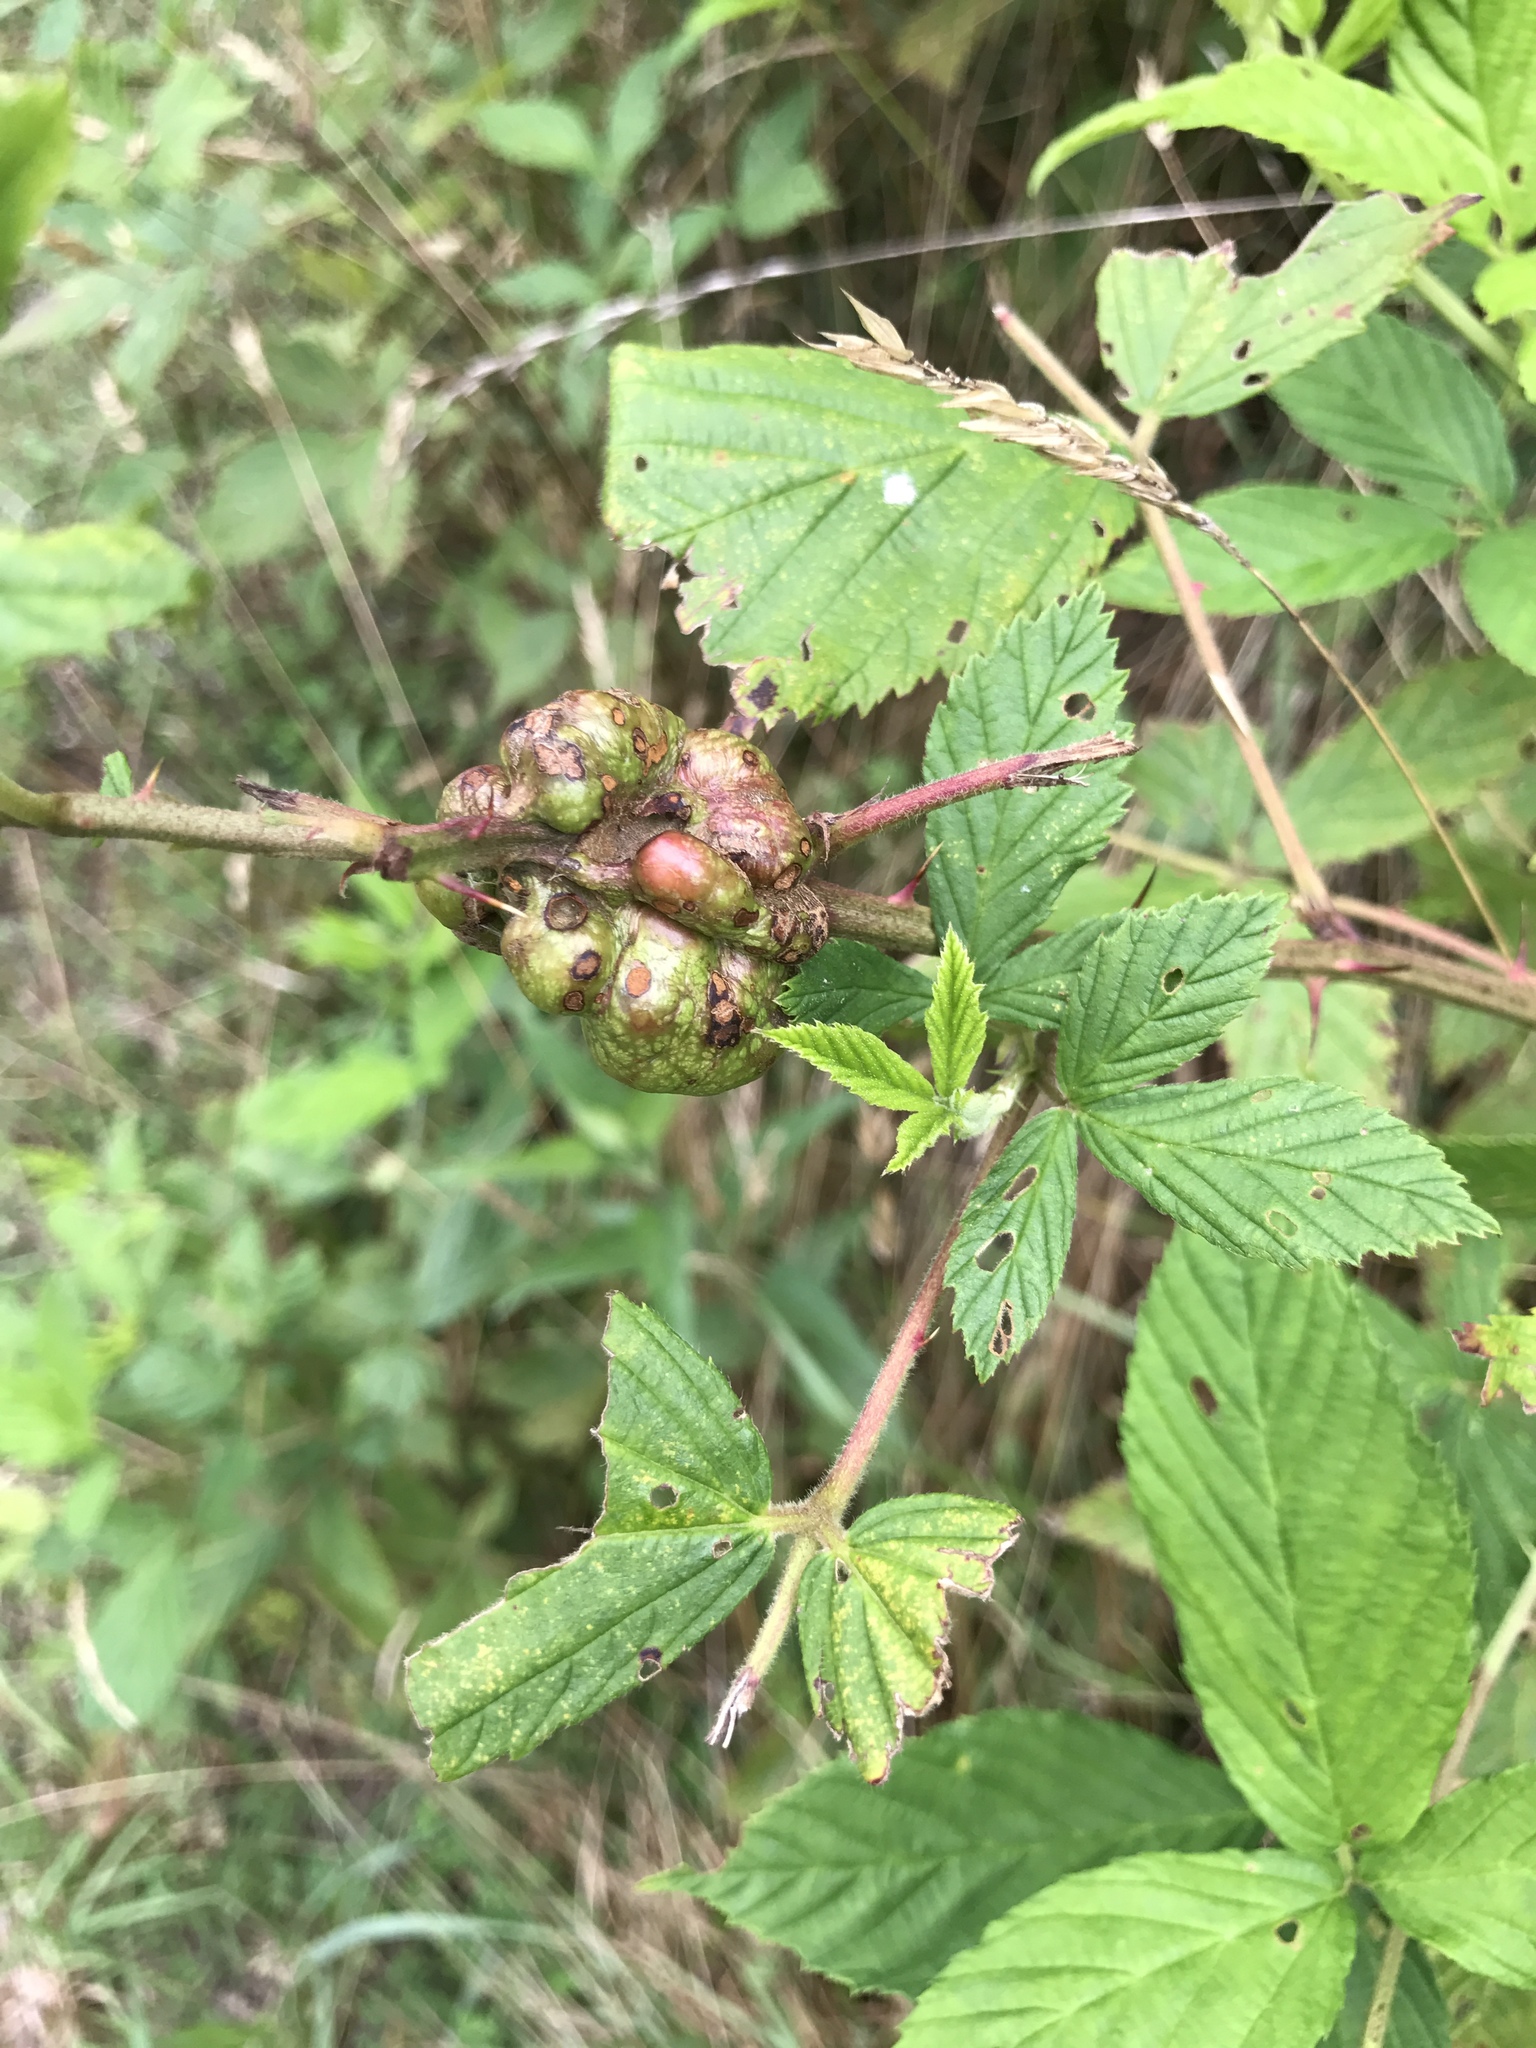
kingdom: Animalia
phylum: Arthropoda
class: Insecta
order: Hymenoptera
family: Cynipidae
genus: Diastrophus
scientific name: Diastrophus
